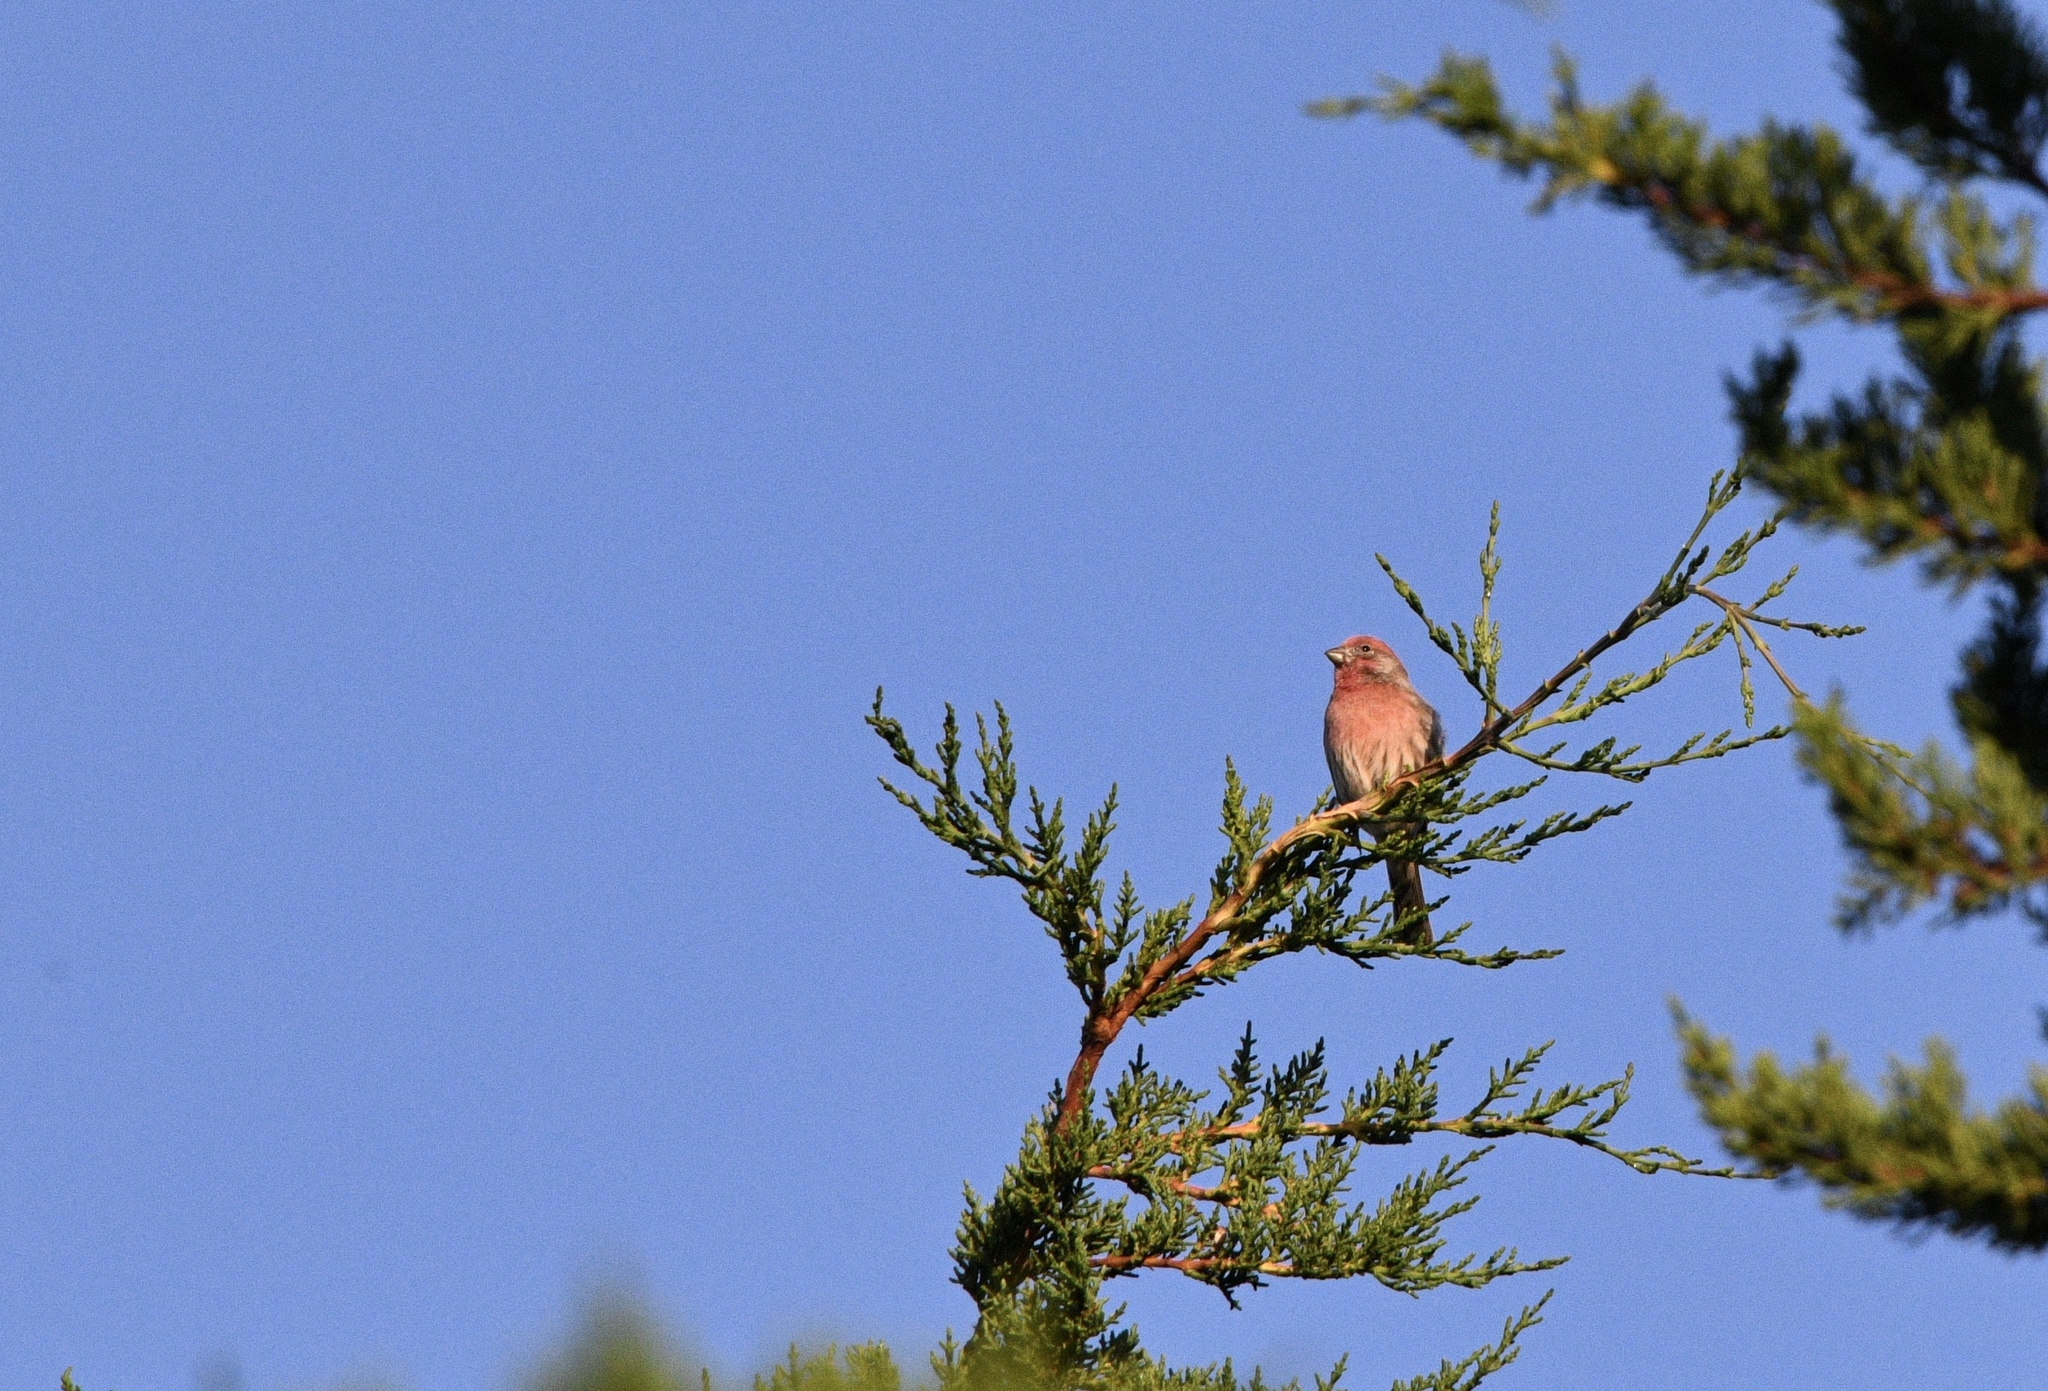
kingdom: Animalia
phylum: Chordata
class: Aves
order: Passeriformes
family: Fringillidae
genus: Haemorhous
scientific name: Haemorhous mexicanus
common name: House finch
